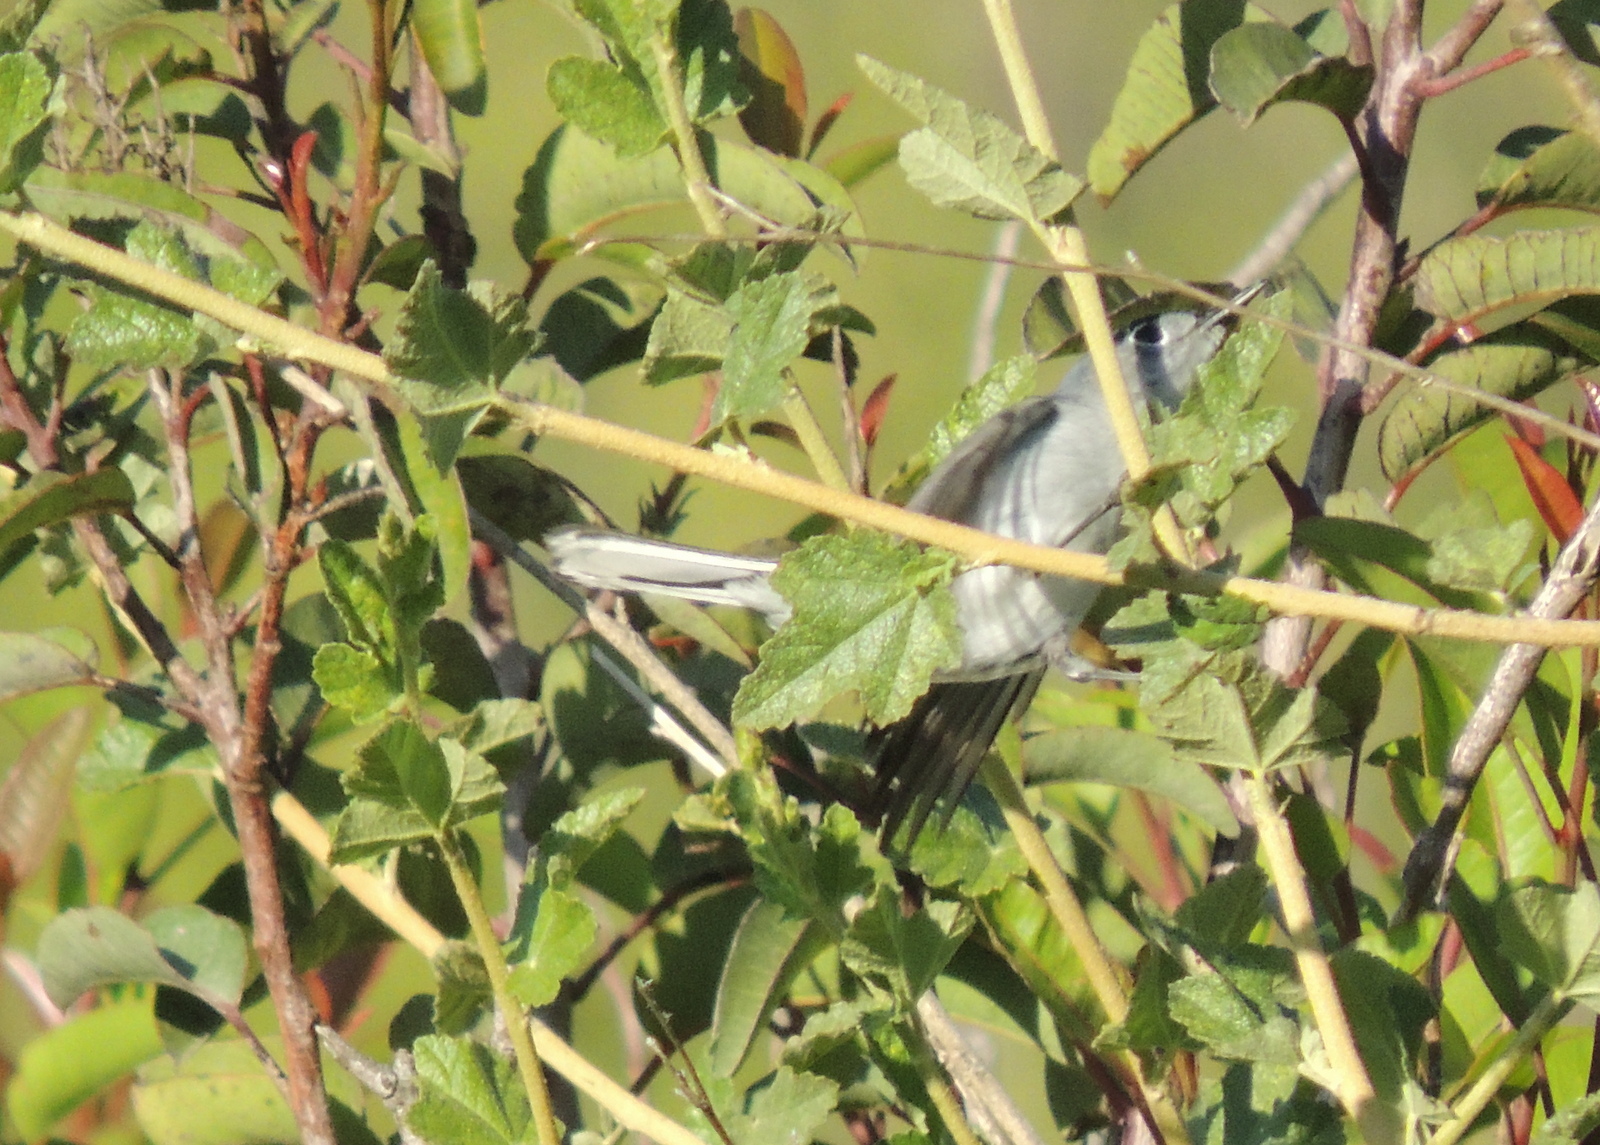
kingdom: Animalia
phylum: Chordata
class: Aves
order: Passeriformes
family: Polioptilidae
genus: Polioptila
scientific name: Polioptila caerulea
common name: Blue-gray gnatcatcher
